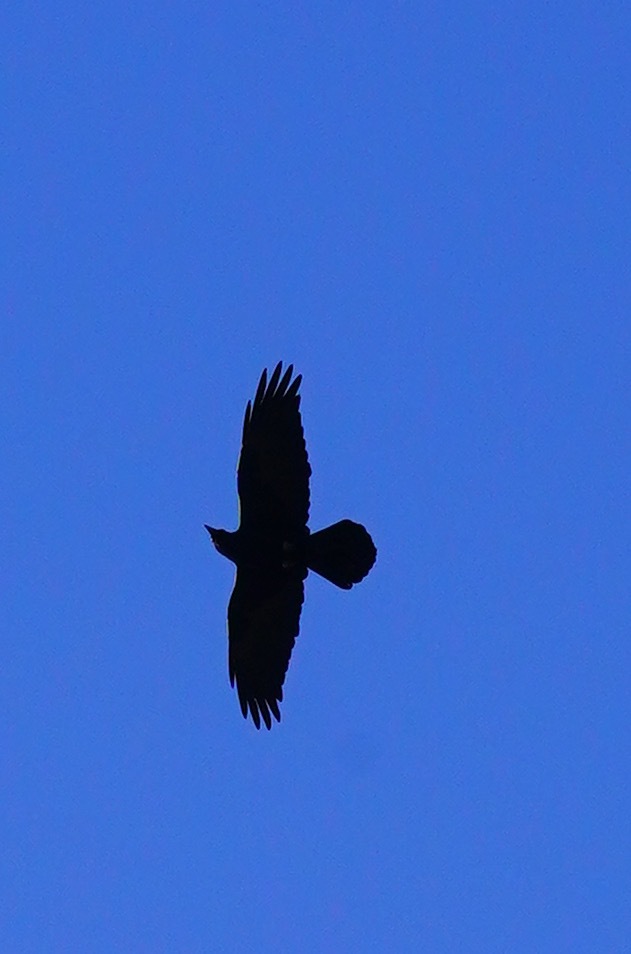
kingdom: Animalia
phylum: Chordata
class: Aves
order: Passeriformes
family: Corvidae
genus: Corvus
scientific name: Corvus corax
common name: Common raven
